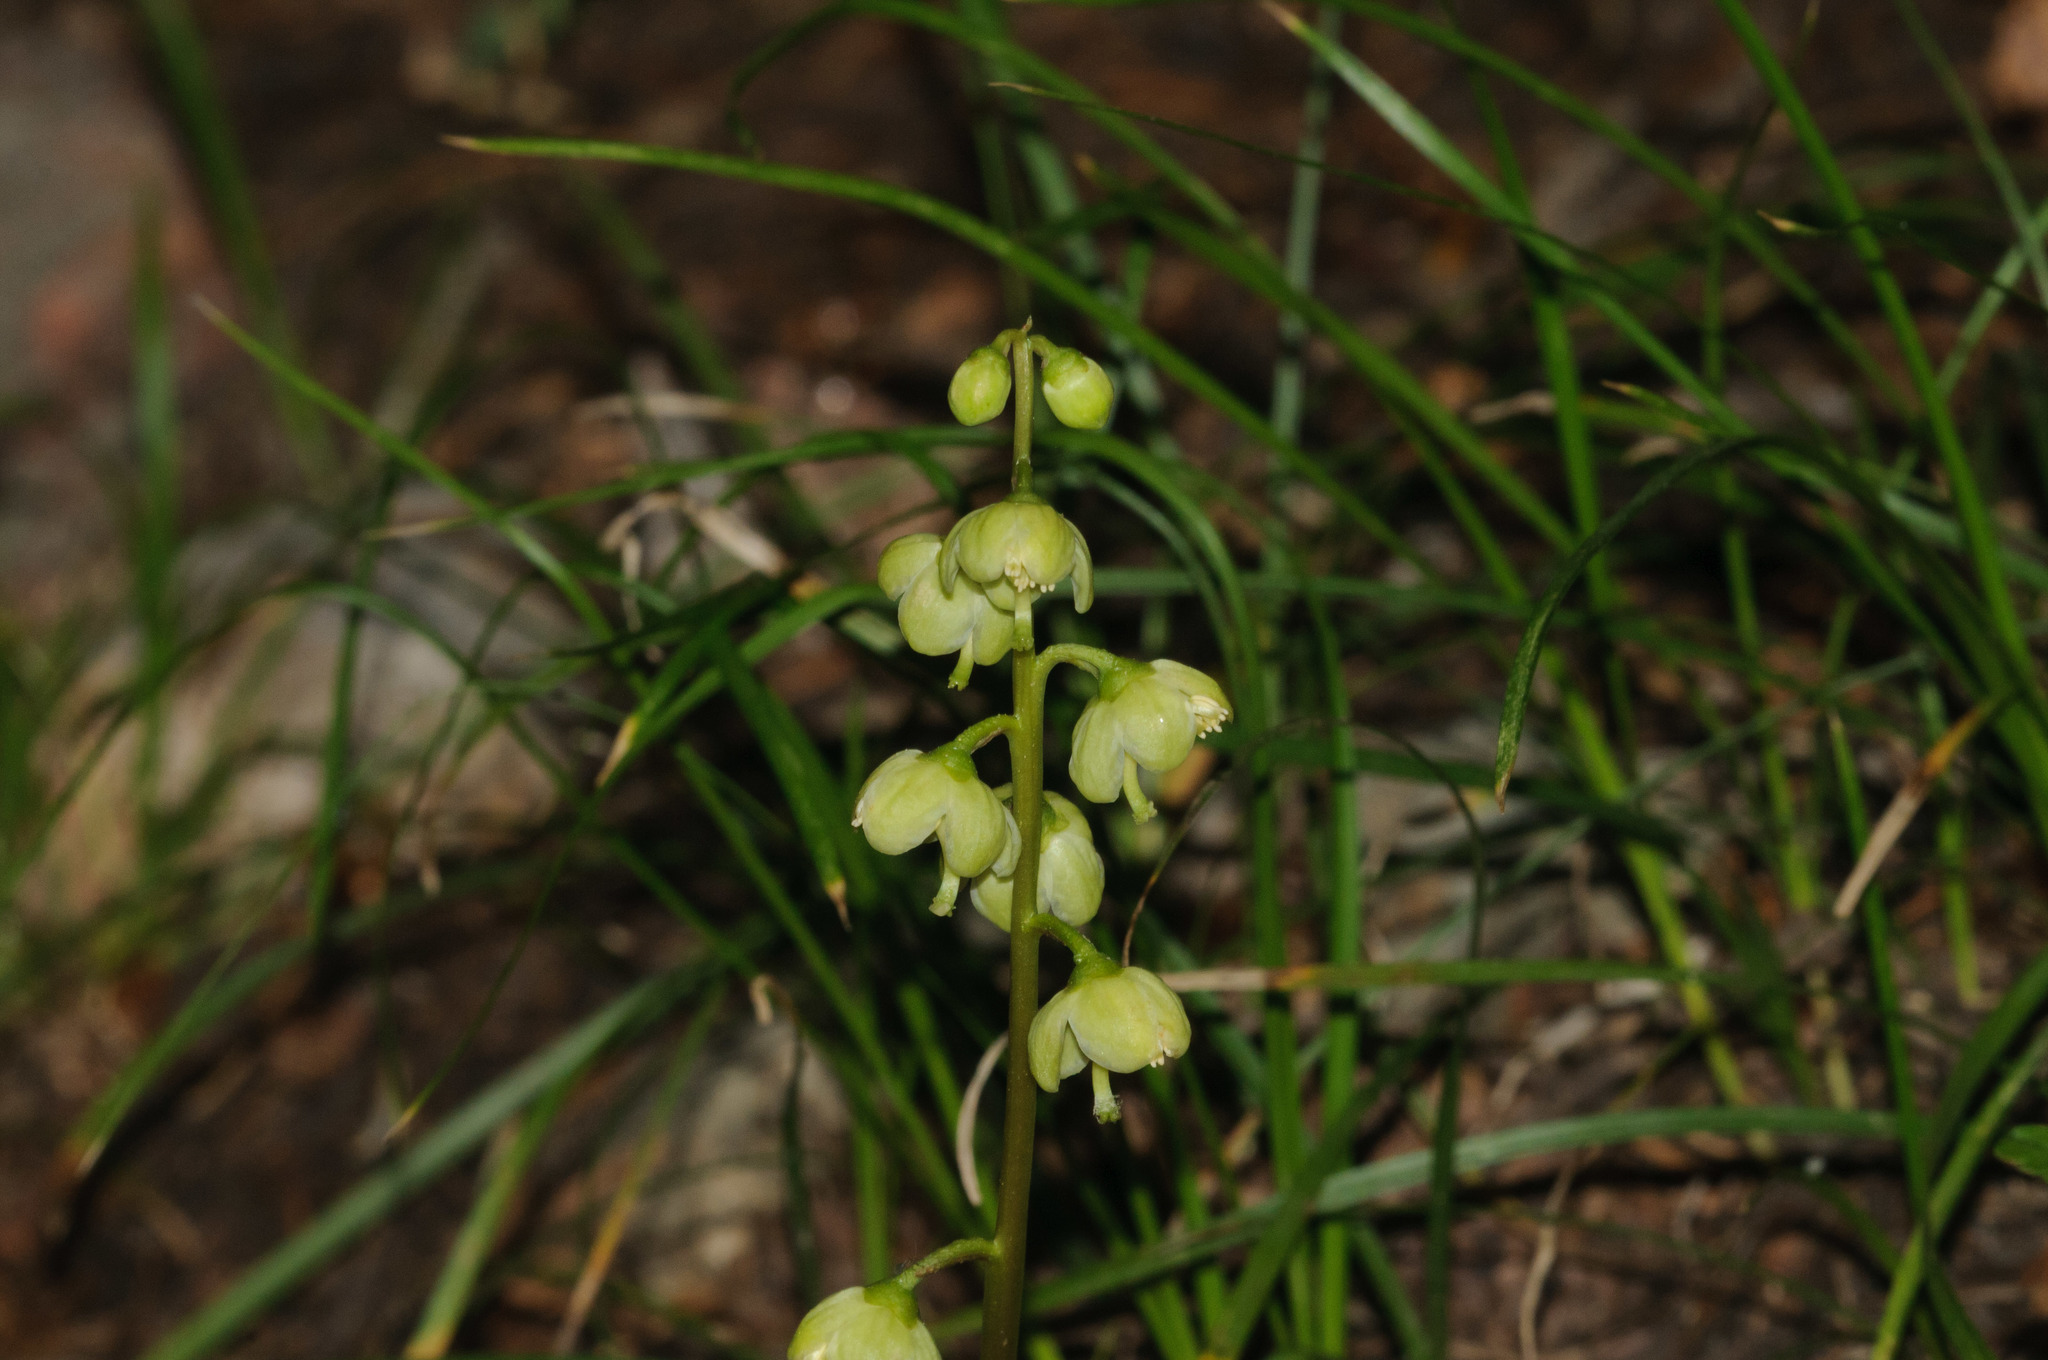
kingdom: Plantae
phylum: Tracheophyta
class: Magnoliopsida
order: Ericales
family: Ericaceae
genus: Pyrola
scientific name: Pyrola chlorantha
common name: Green wintergreen
